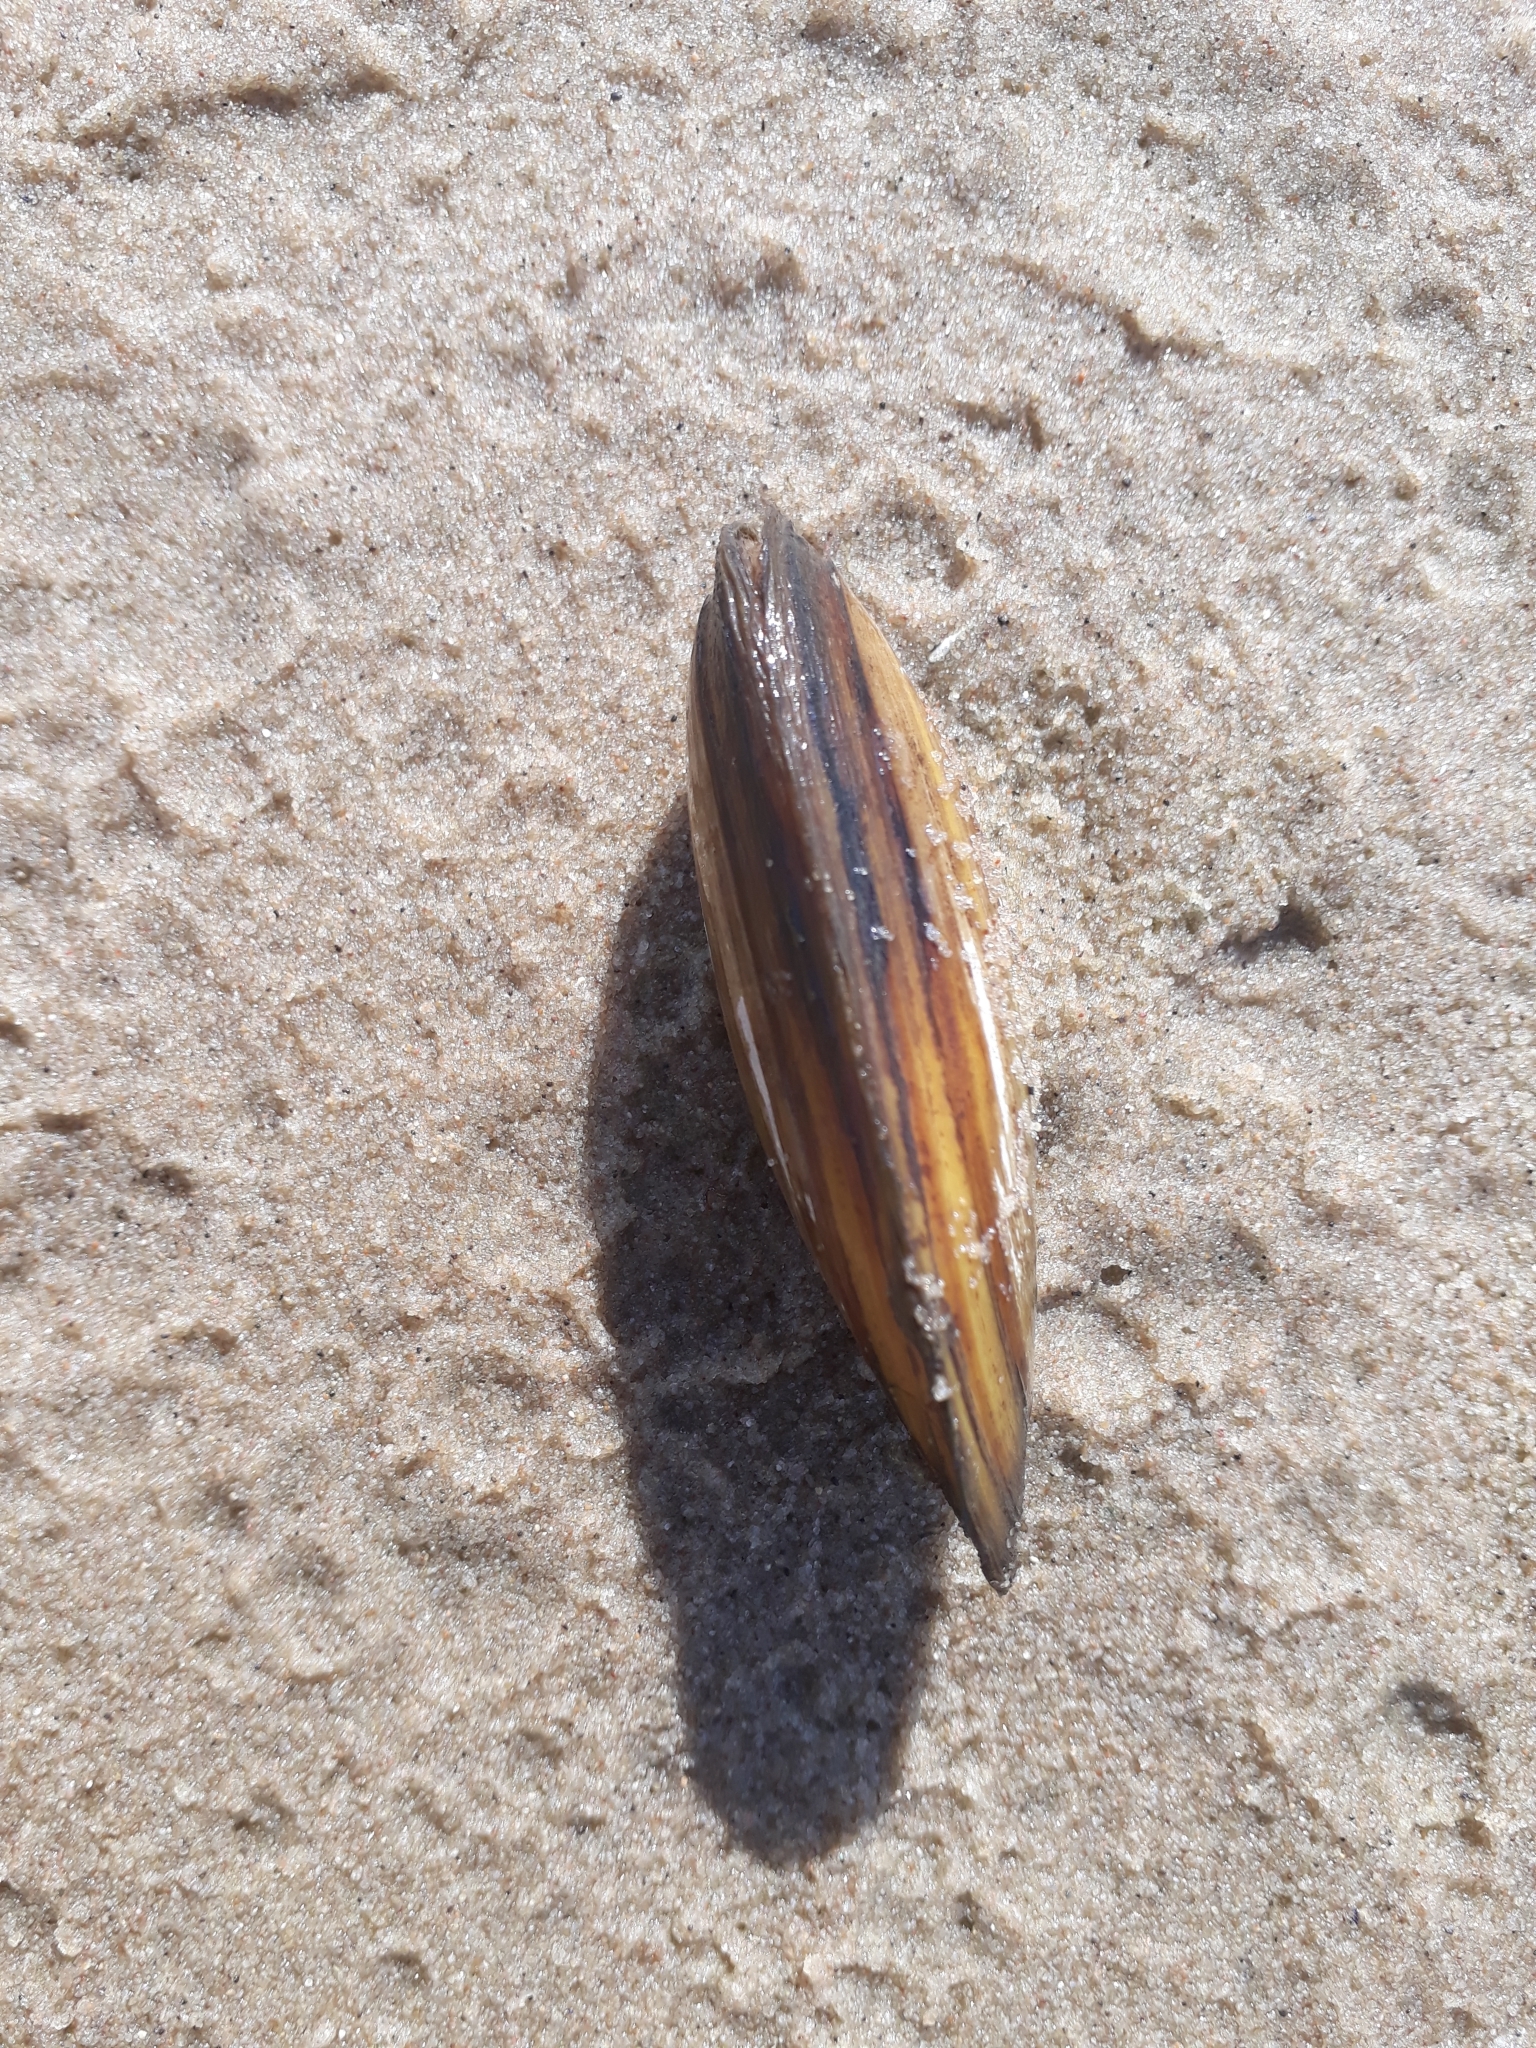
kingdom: Animalia
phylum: Mollusca
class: Bivalvia
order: Unionida
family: Unionidae
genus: Unio
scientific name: Unio pictorum
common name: Painter's mussel
